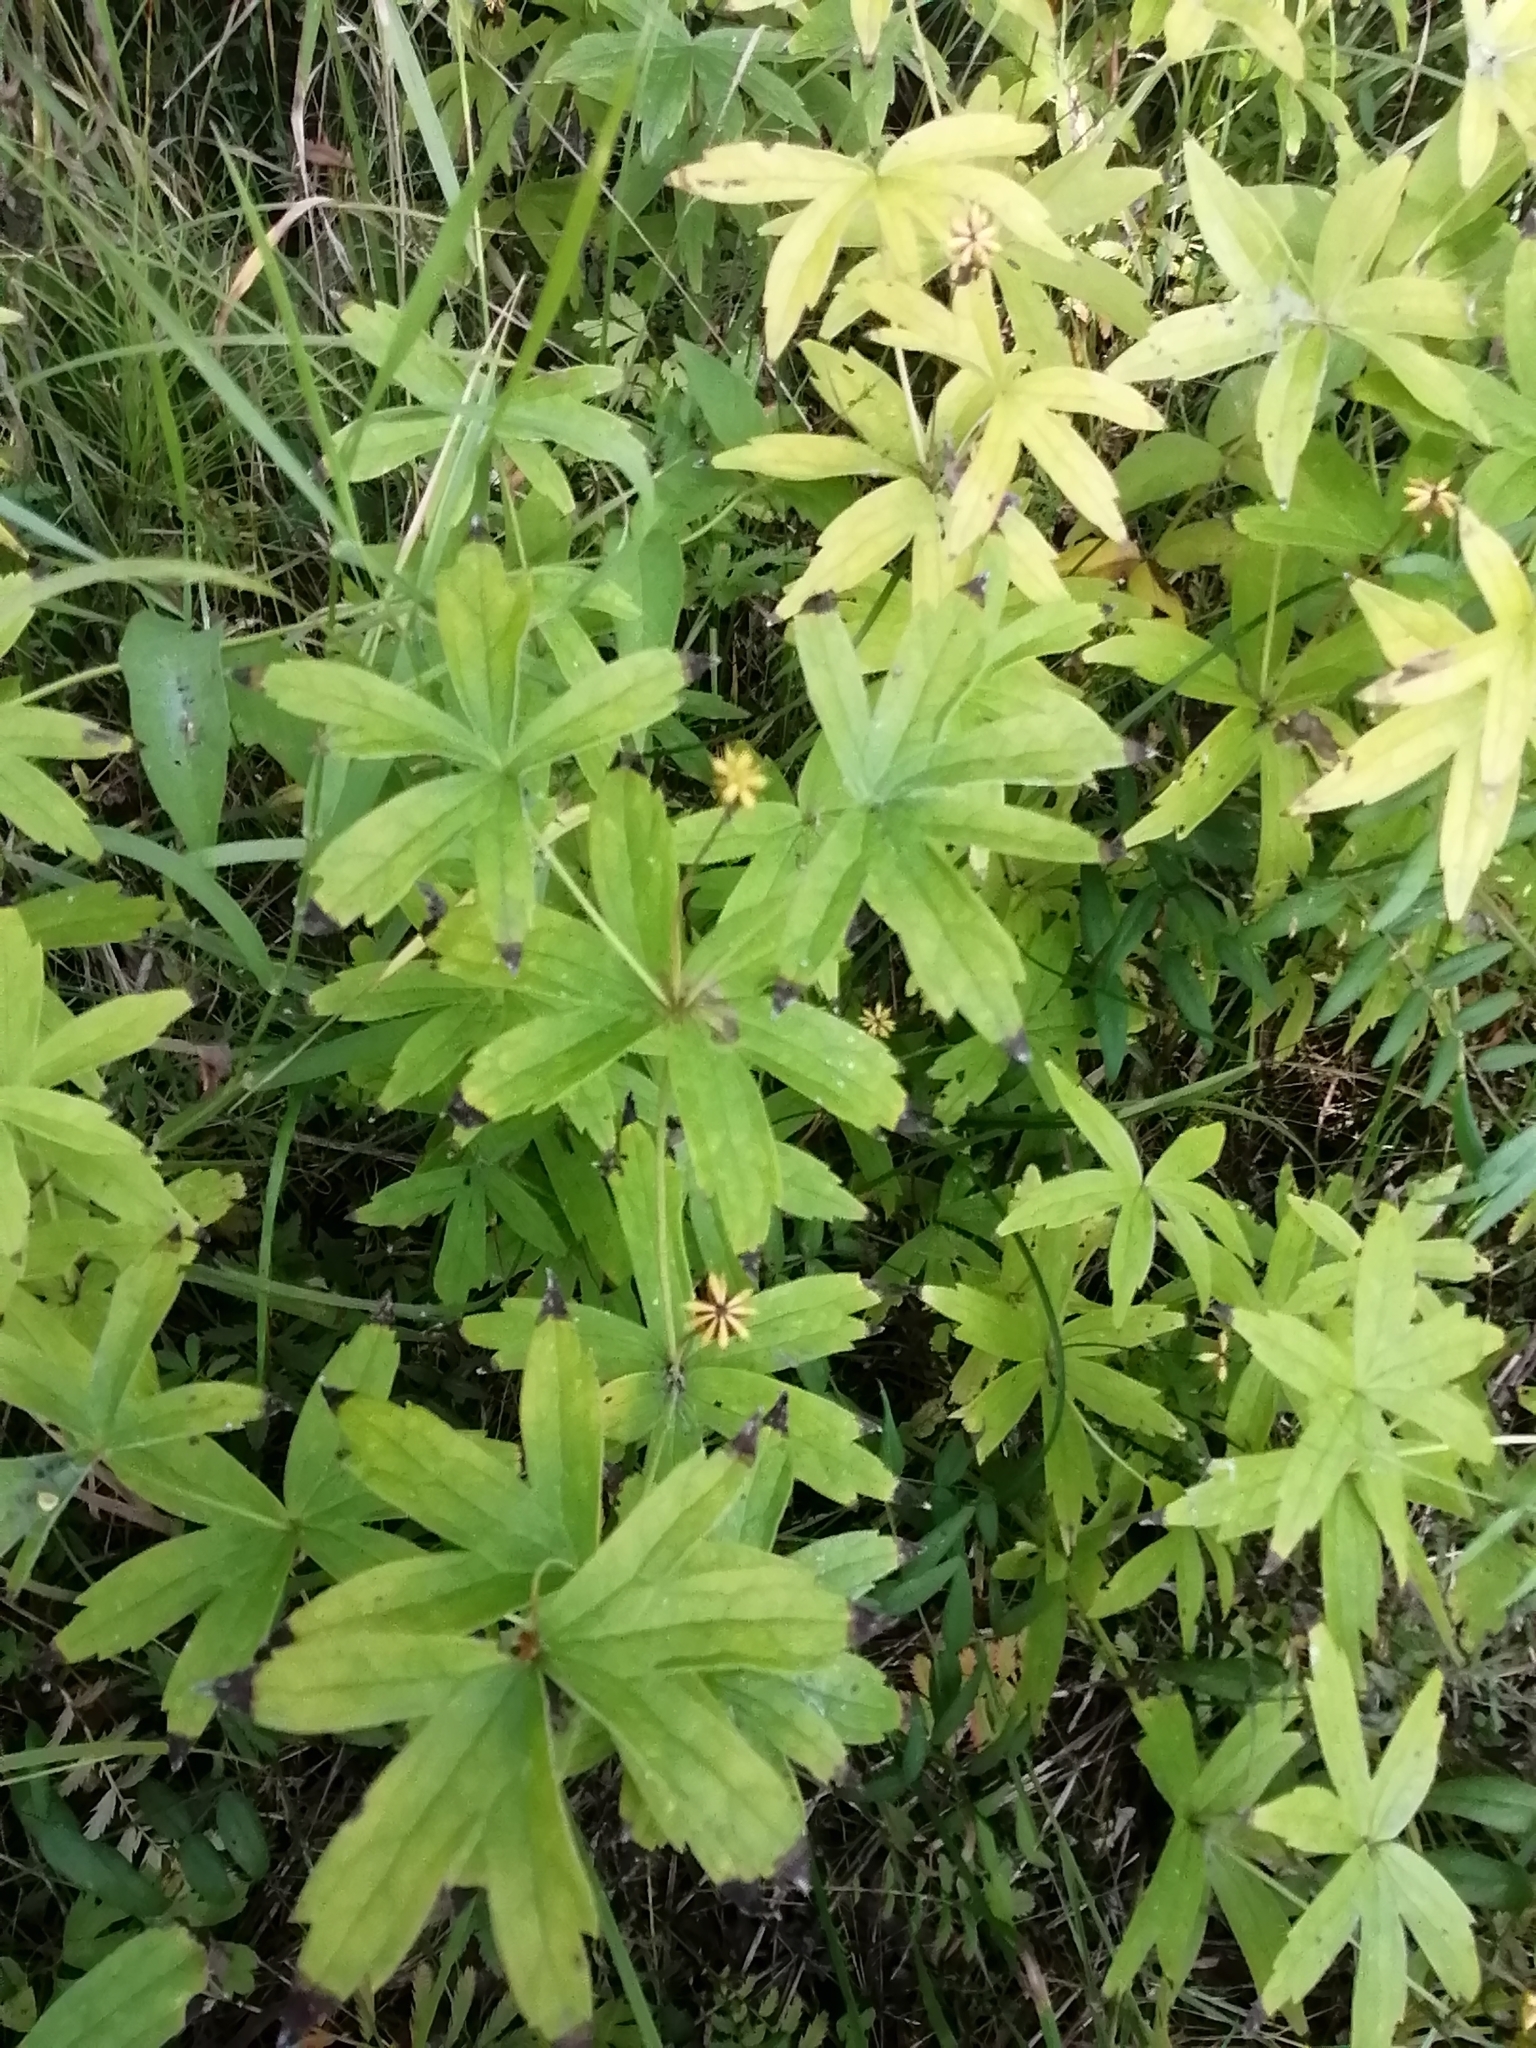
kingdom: Plantae
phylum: Tracheophyta
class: Magnoliopsida
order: Ranunculales
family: Ranunculaceae
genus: Anemonastrum
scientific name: Anemonastrum dichotomum
